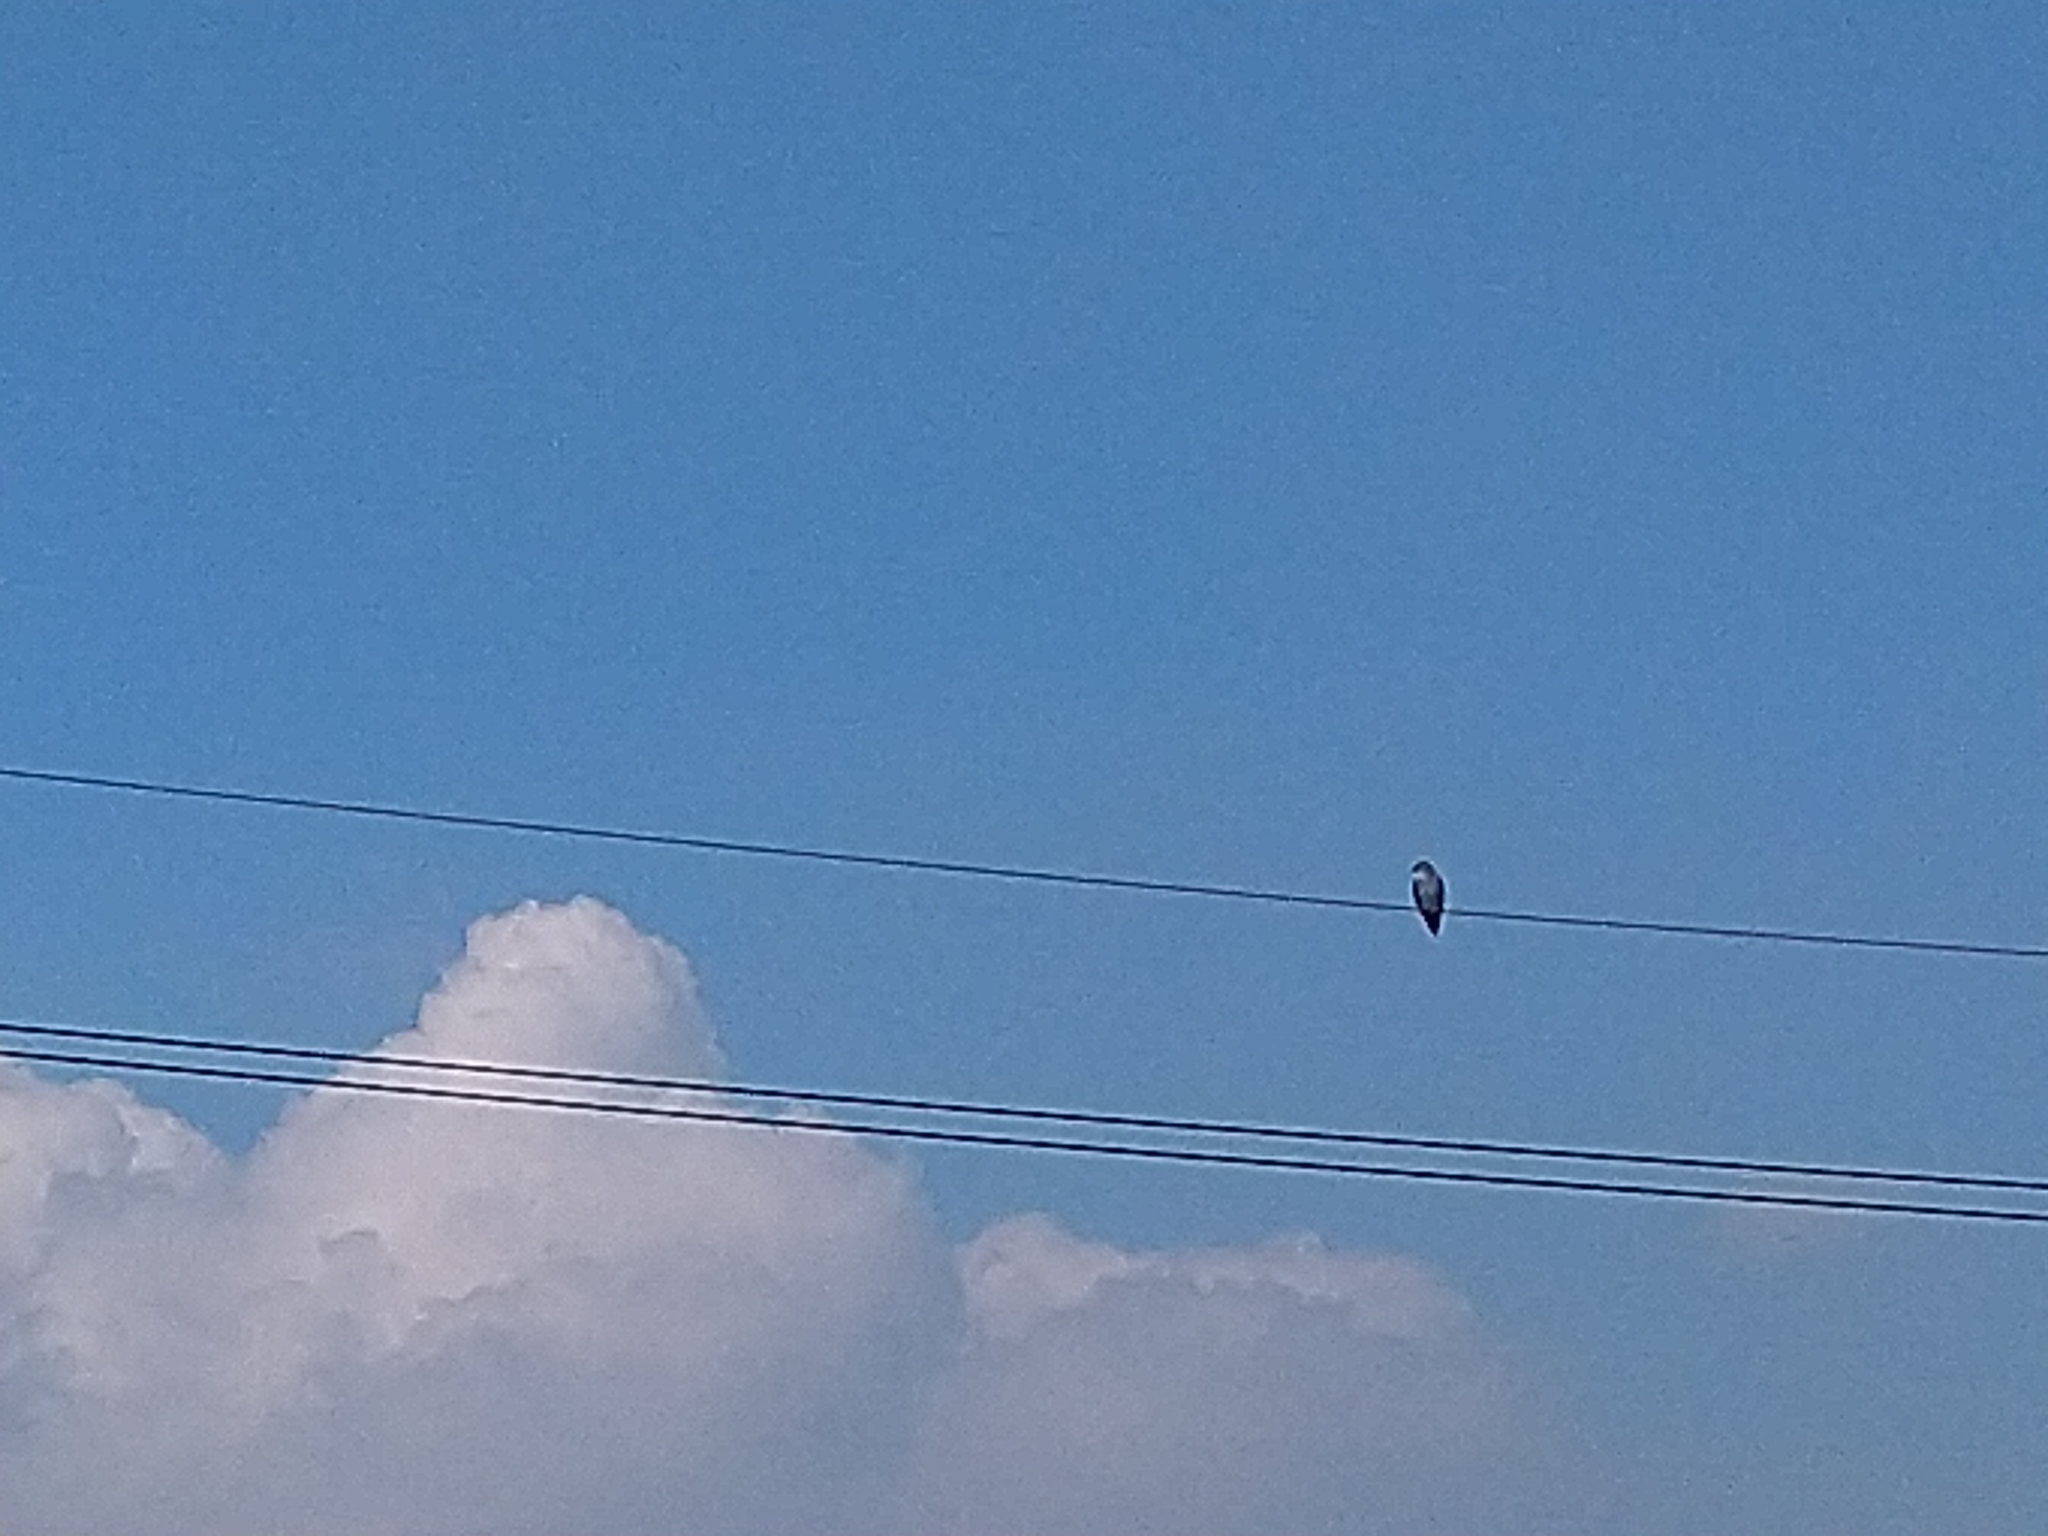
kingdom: Animalia
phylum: Chordata
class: Aves
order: Accipitriformes
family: Accipitridae
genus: Elanus
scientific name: Elanus caeruleus
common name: Black-winged kite
